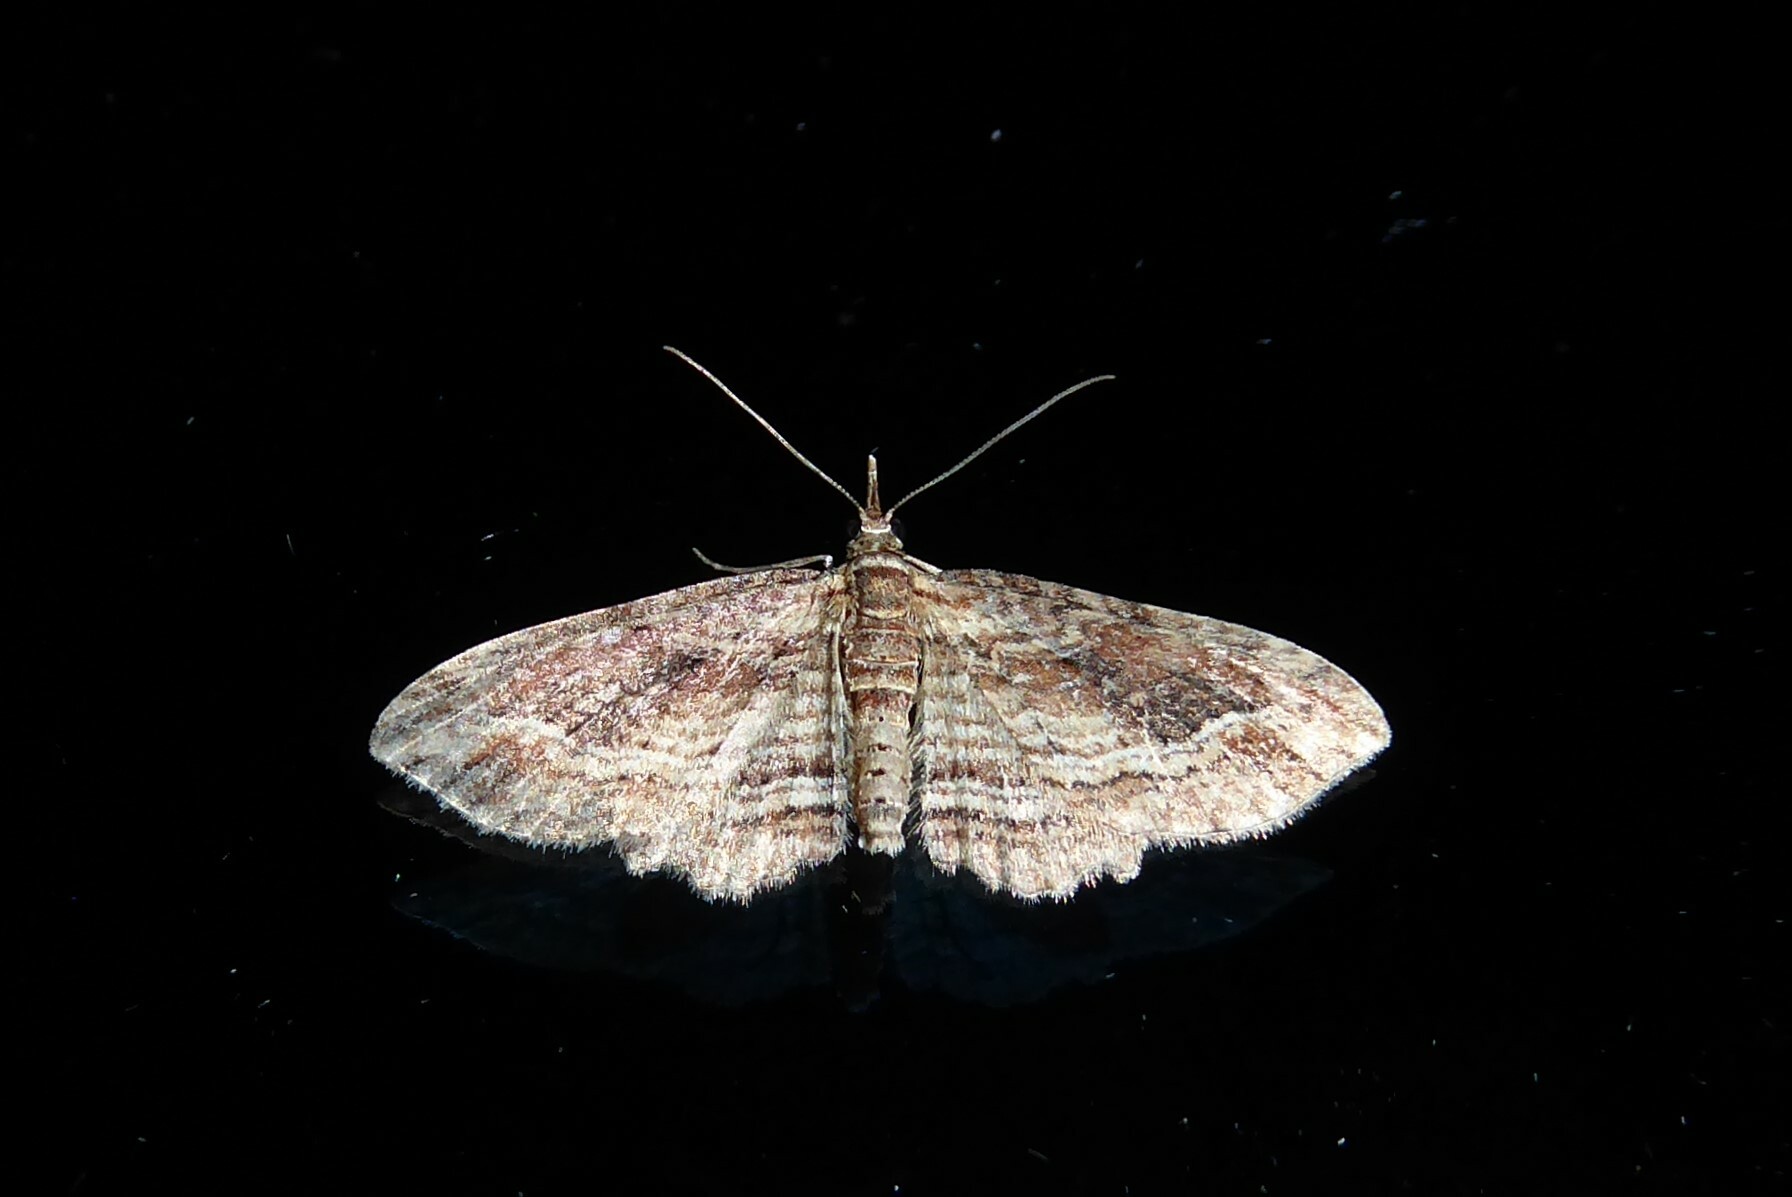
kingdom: Animalia
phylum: Arthropoda
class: Insecta
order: Lepidoptera
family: Geometridae
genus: Chloroclystis
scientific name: Chloroclystis filata
